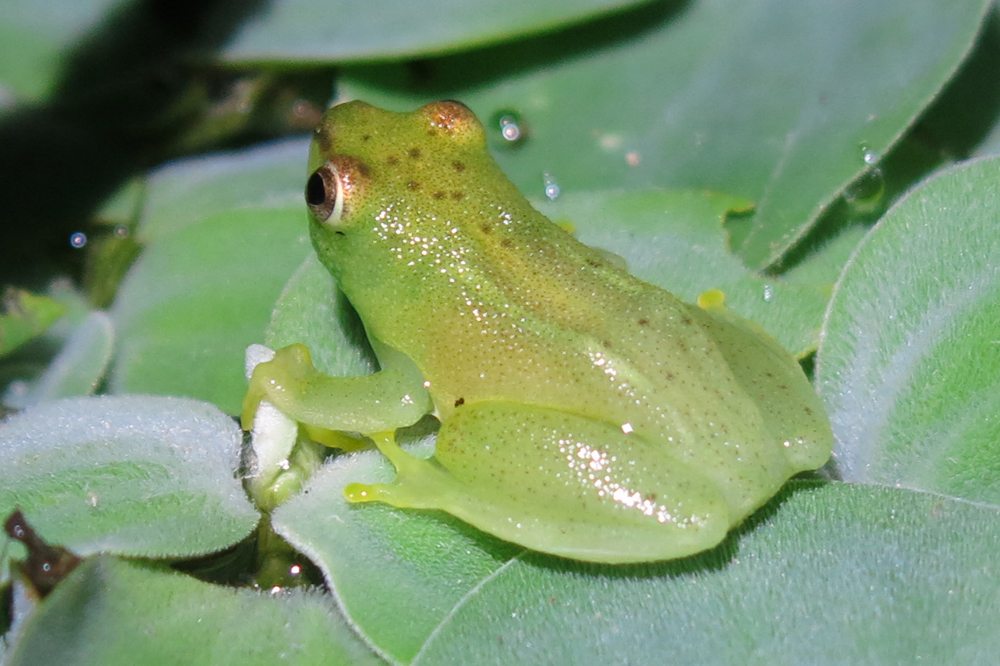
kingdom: Animalia
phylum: Chordata
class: Amphibia
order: Anura
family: Hyperoliidae
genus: Hyperolius
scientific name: Hyperolius pusillus
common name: Water lily reed frog
